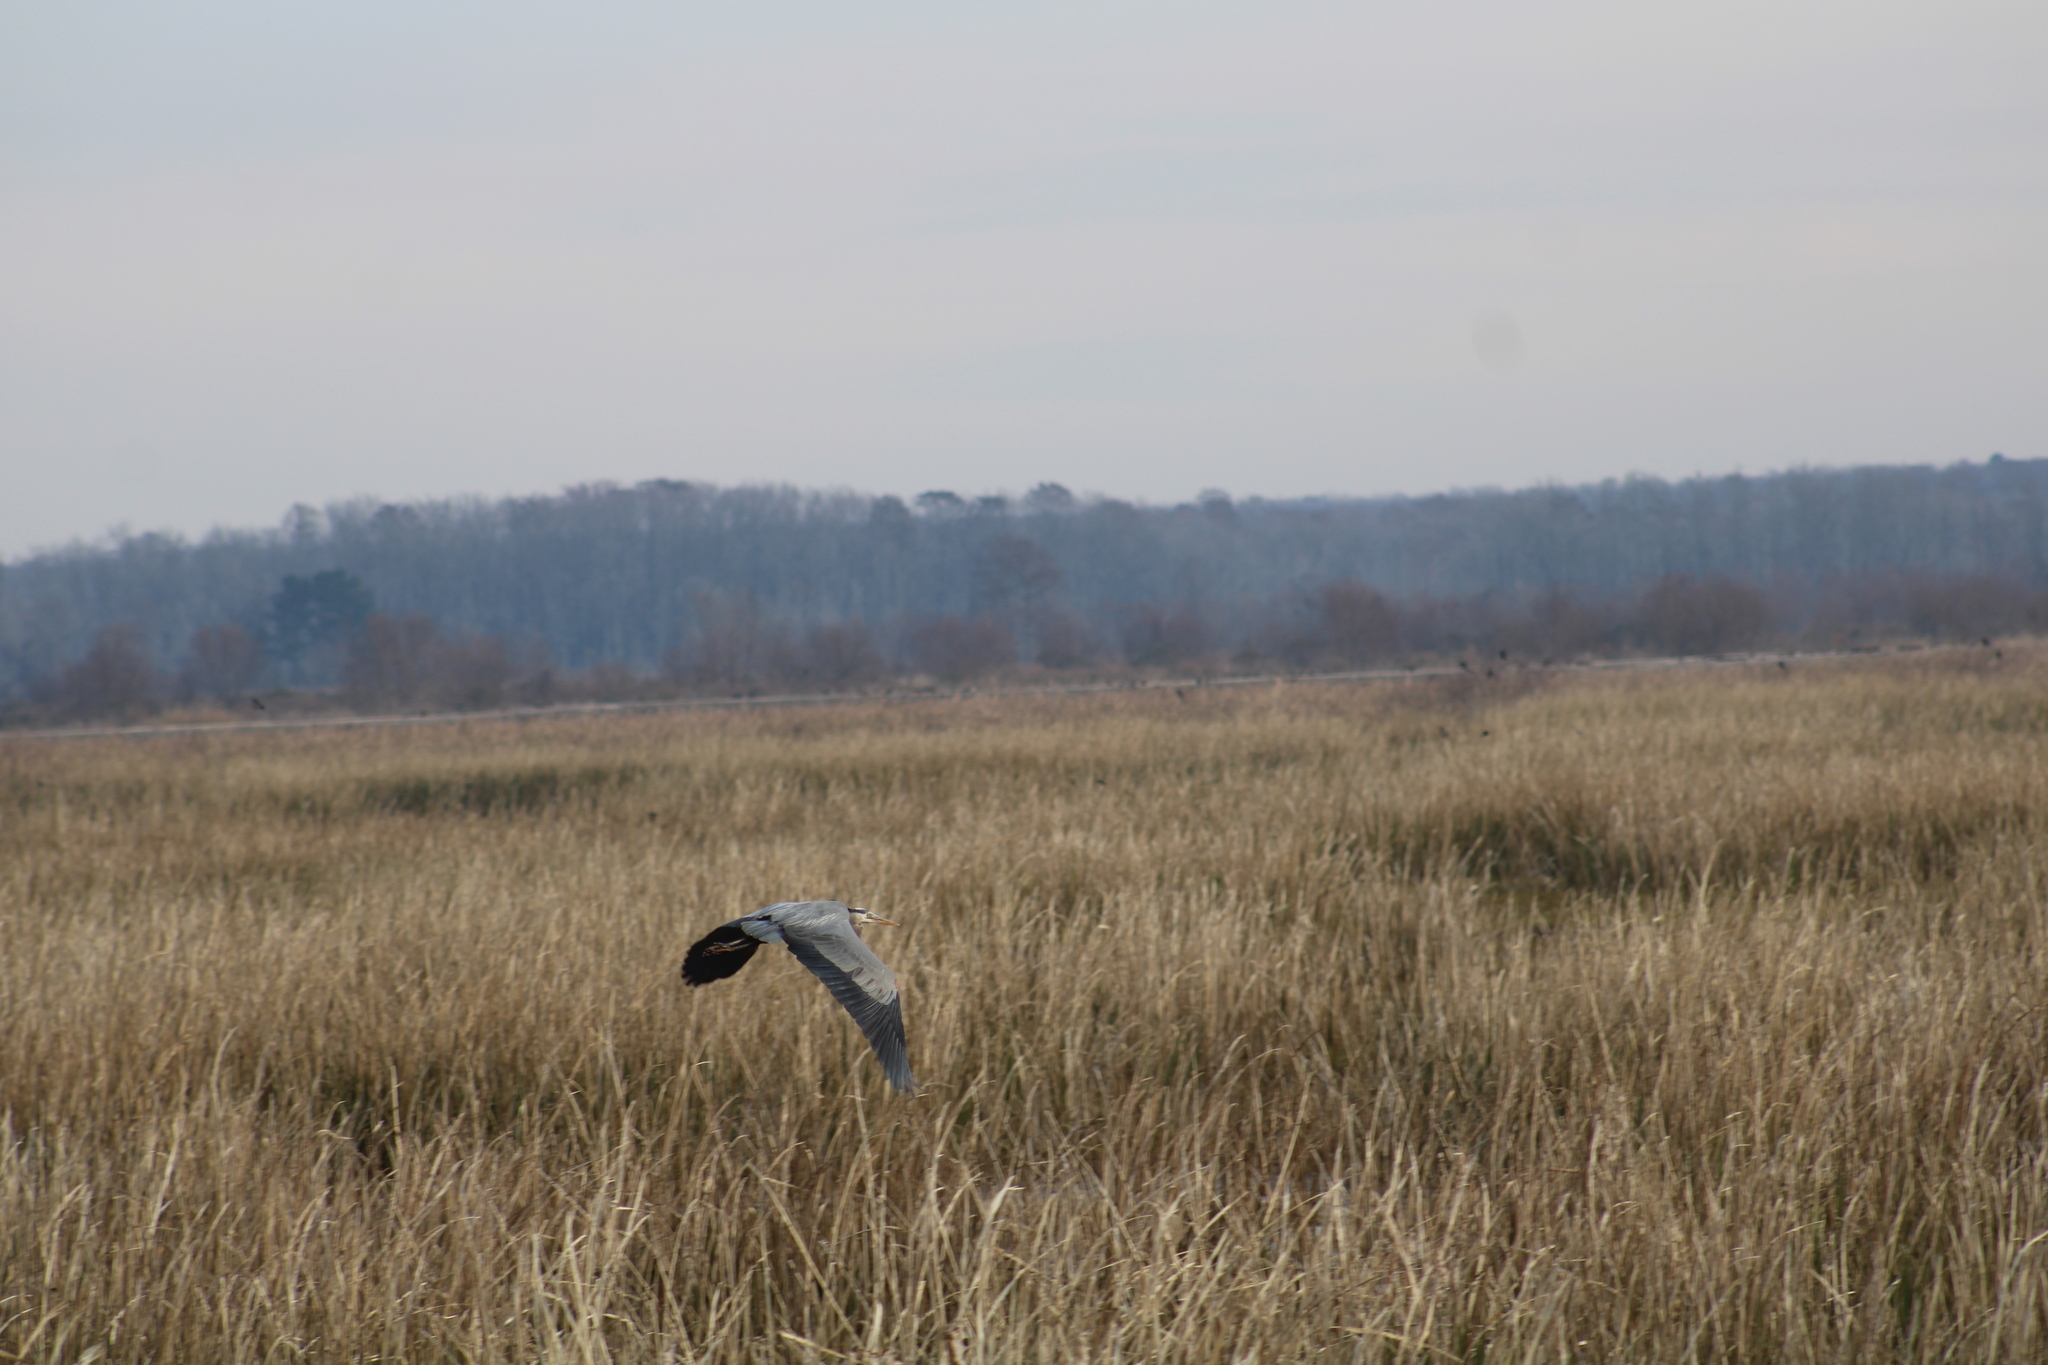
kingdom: Animalia
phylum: Chordata
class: Aves
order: Pelecaniformes
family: Ardeidae
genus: Ardea
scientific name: Ardea herodias
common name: Great blue heron
